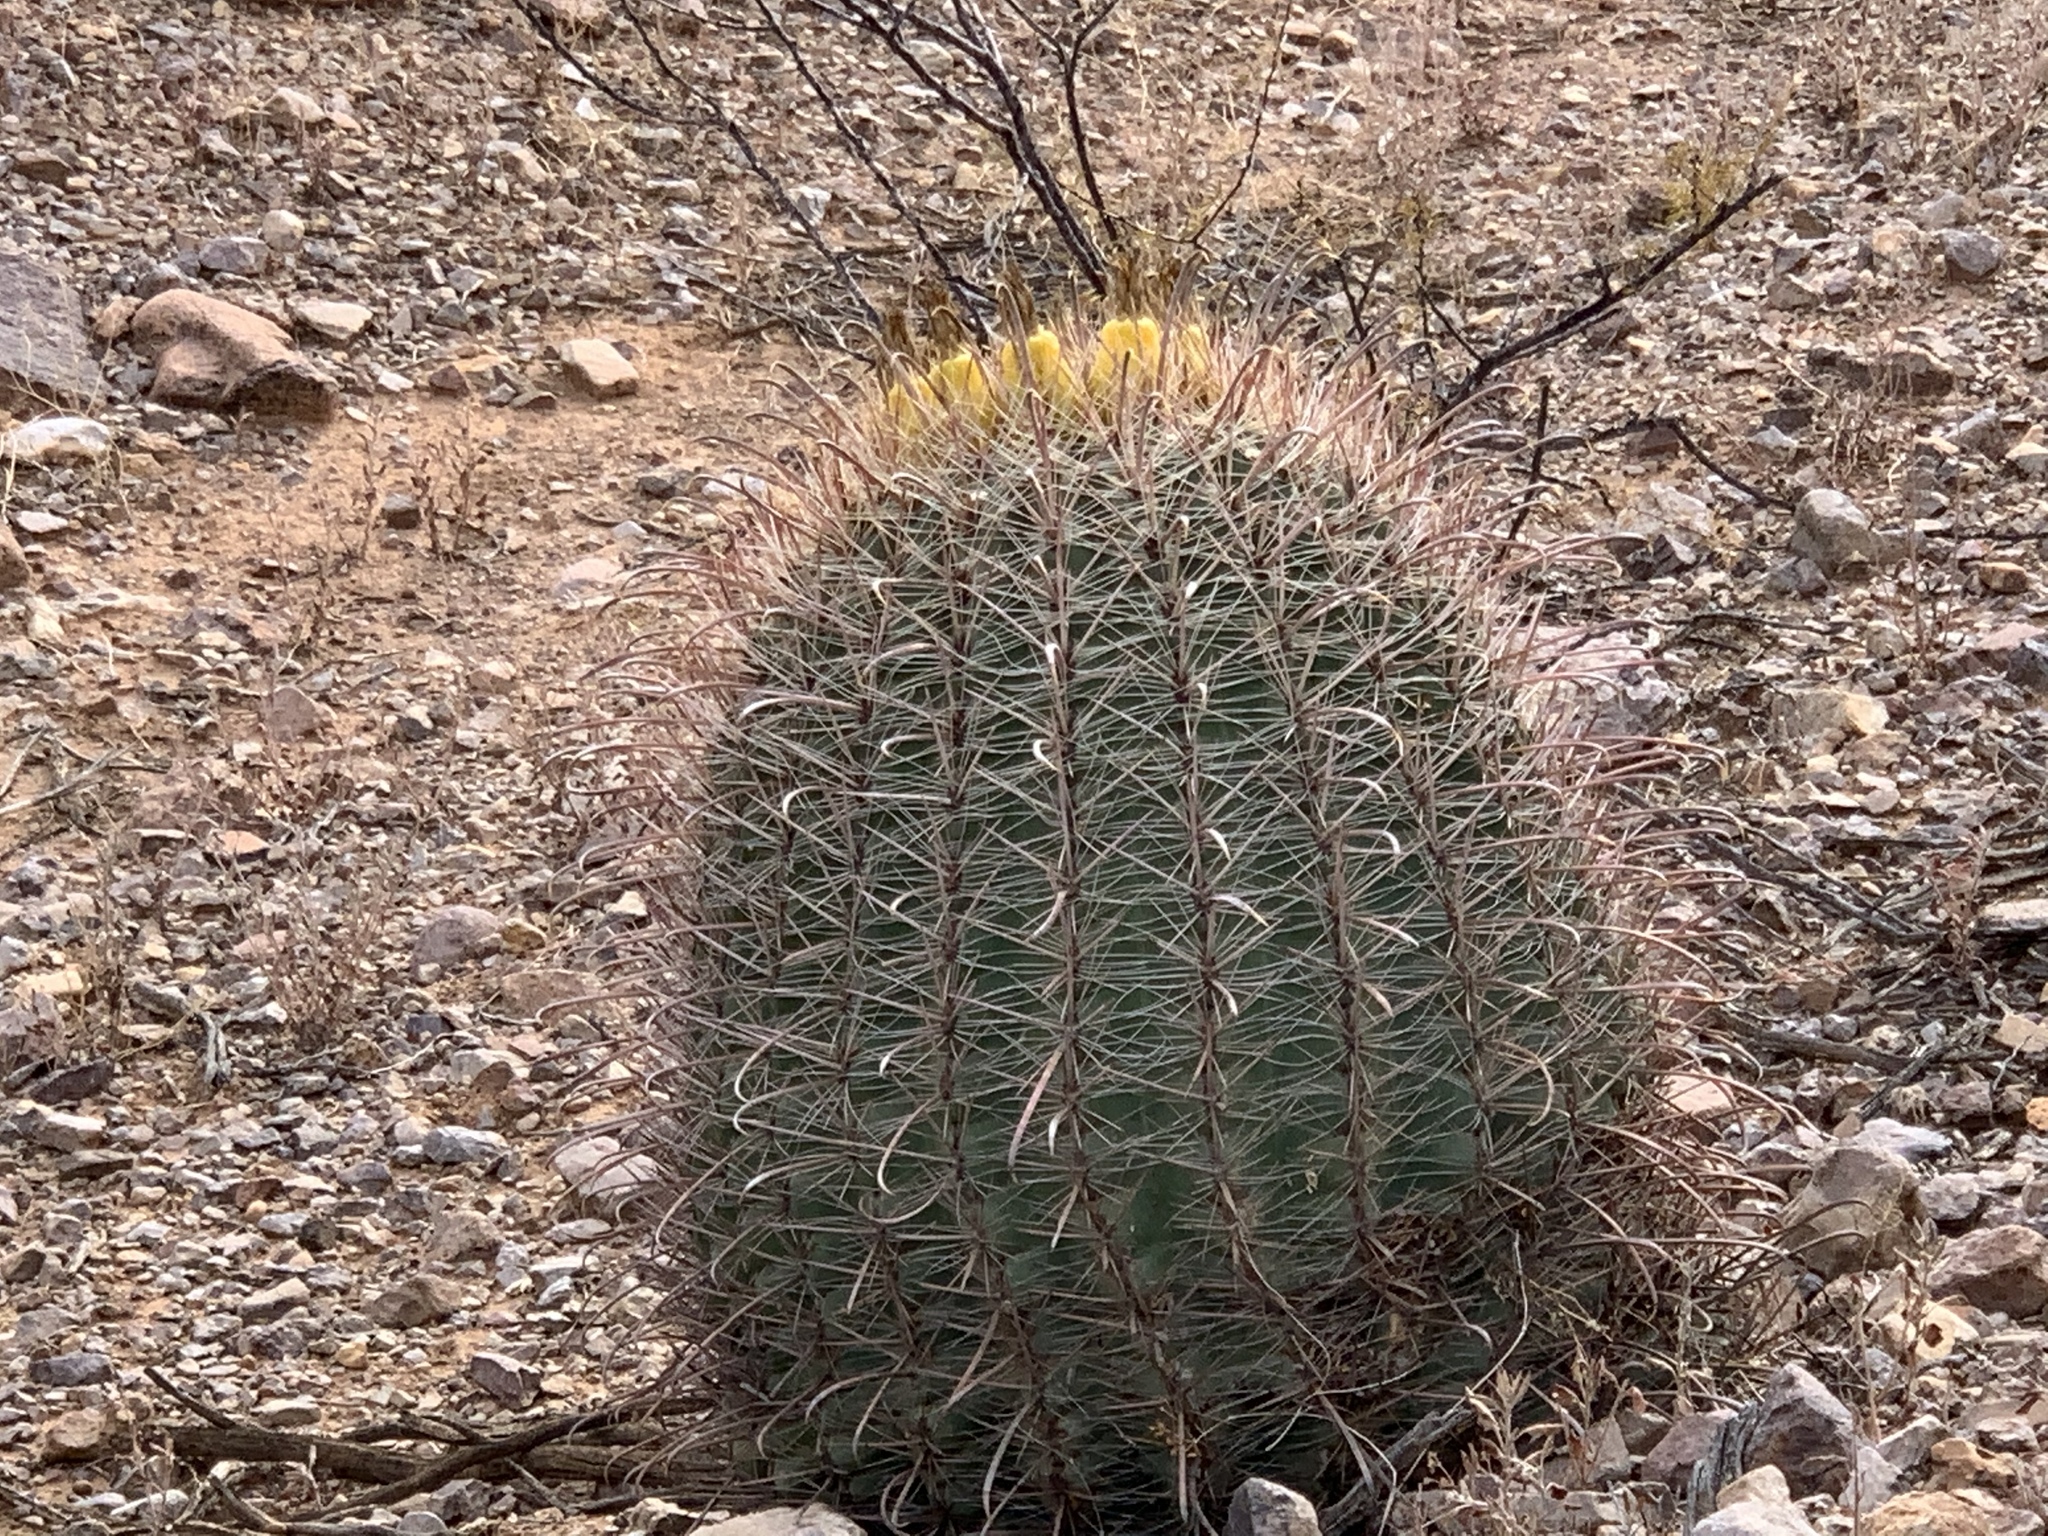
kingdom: Plantae
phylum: Tracheophyta
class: Magnoliopsida
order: Caryophyllales
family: Cactaceae
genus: Ferocactus
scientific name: Ferocactus wislizeni
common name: Candy barrel cactus
